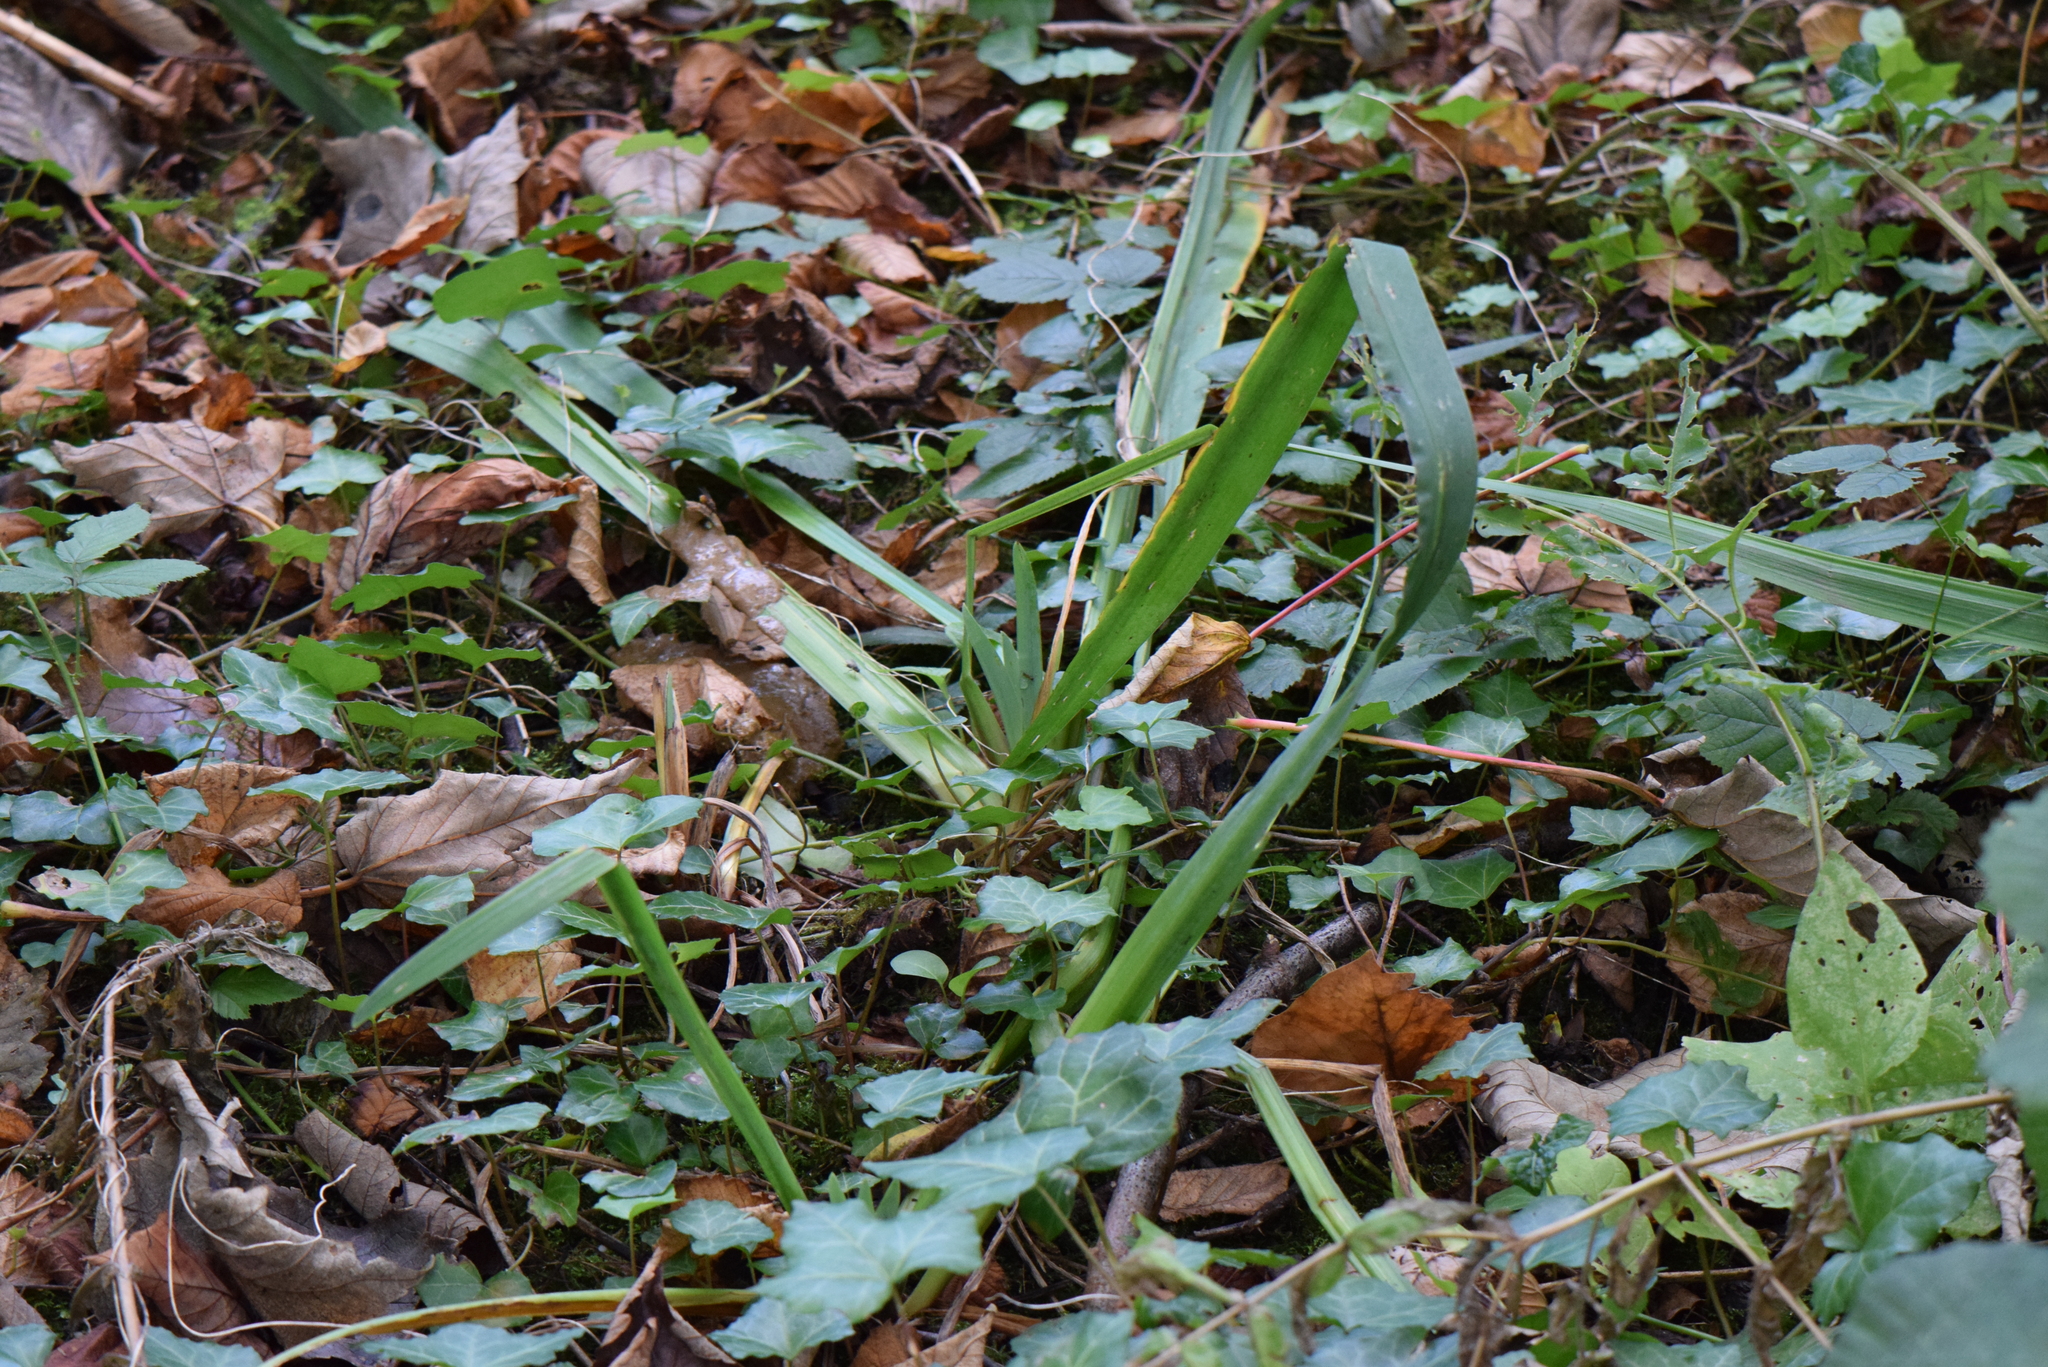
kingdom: Plantae
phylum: Tracheophyta
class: Liliopsida
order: Asparagales
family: Iridaceae
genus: Iris
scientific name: Iris foetidissima
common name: Stinking iris
